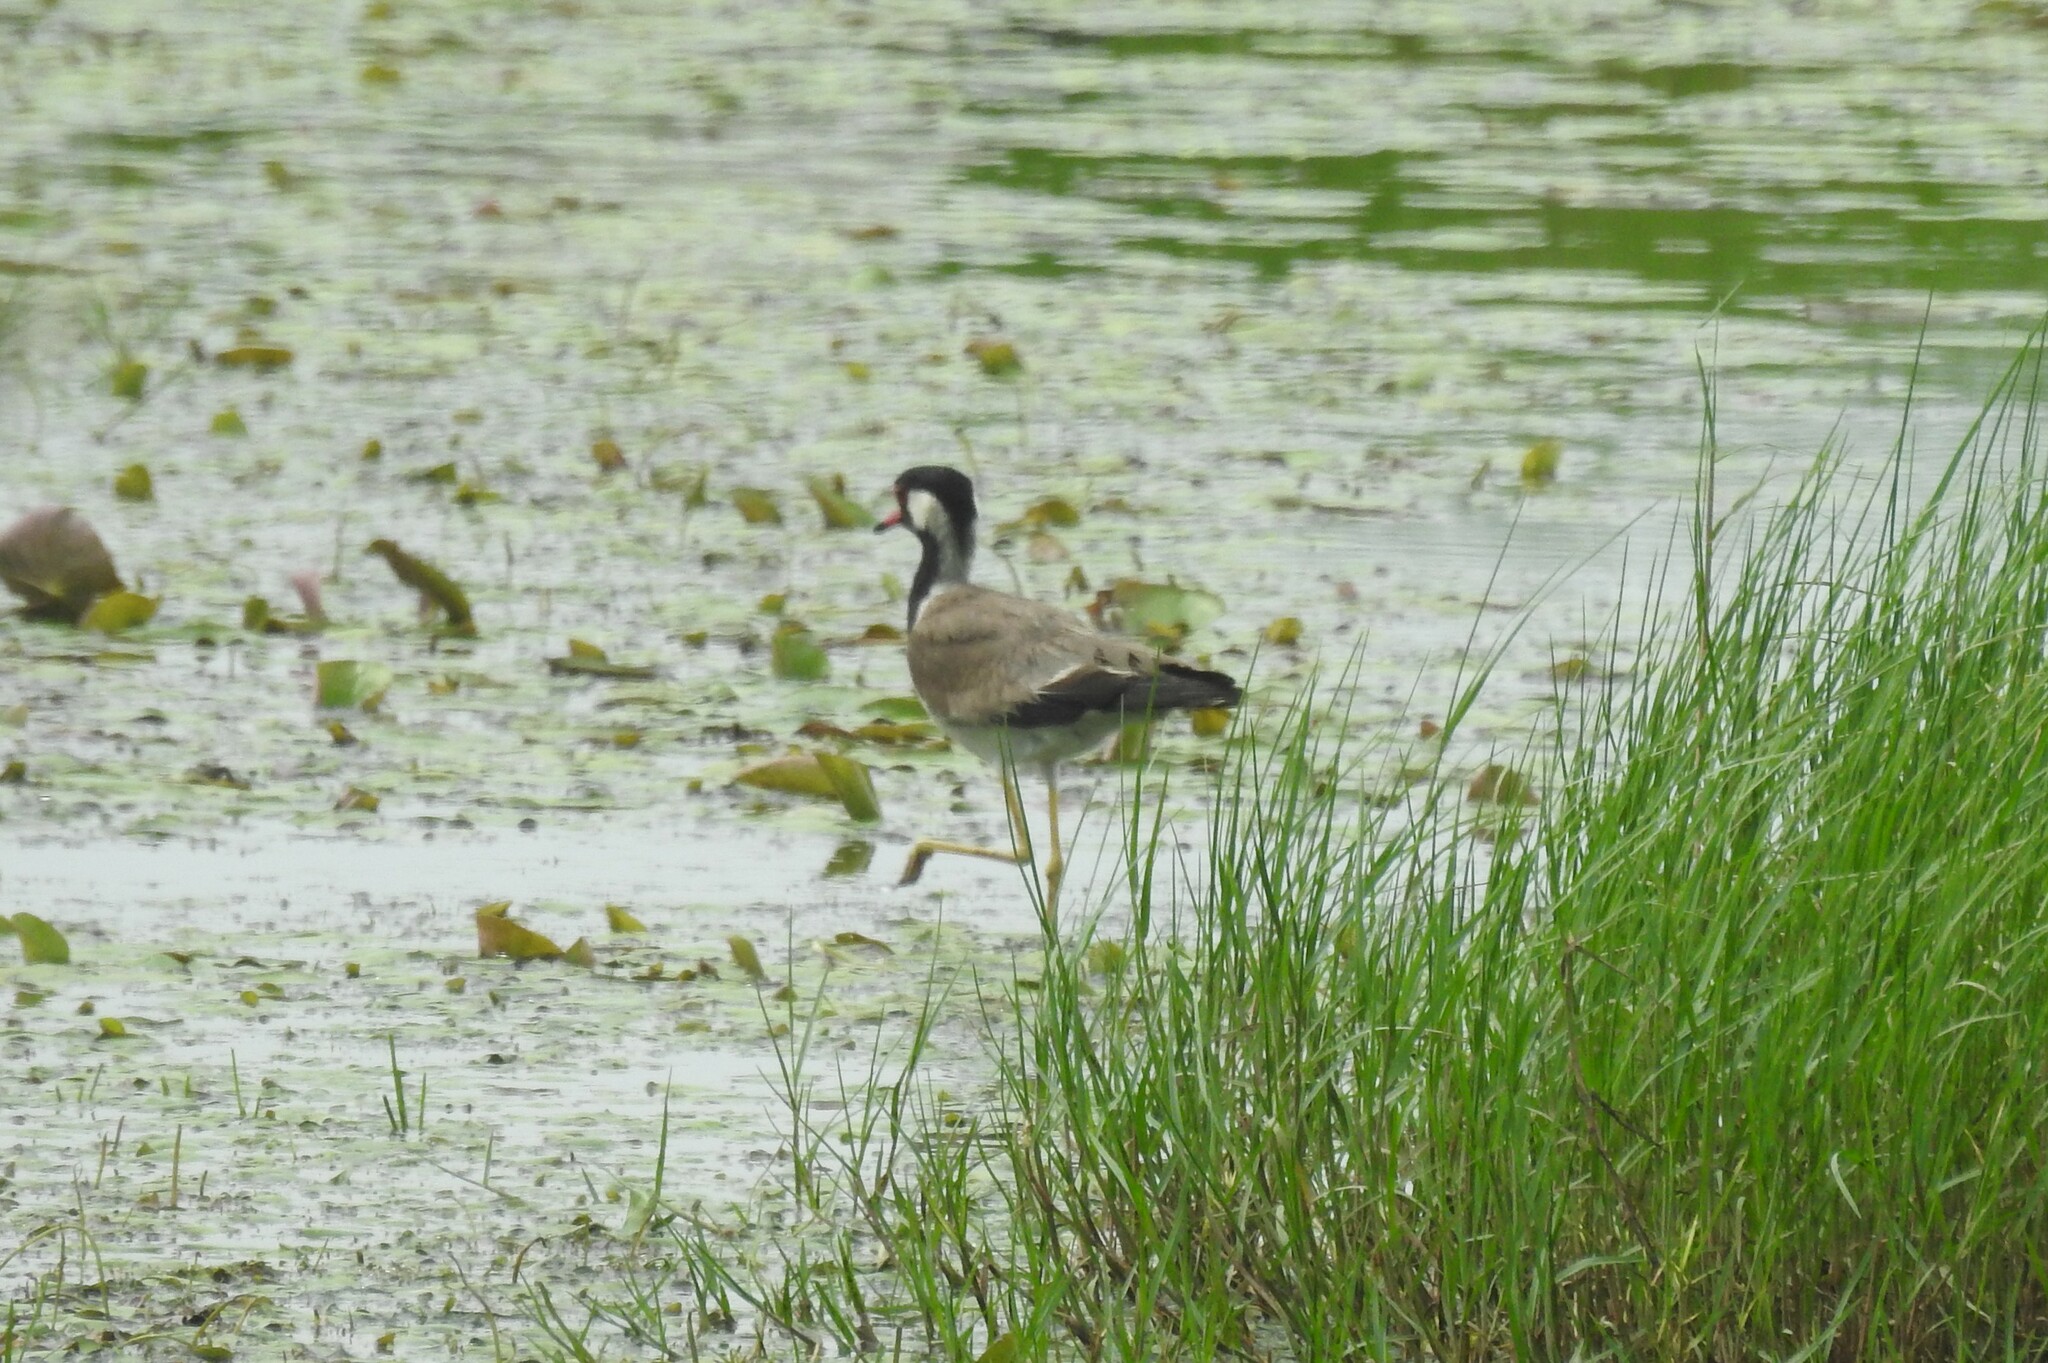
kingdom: Animalia
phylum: Chordata
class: Aves
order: Charadriiformes
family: Charadriidae
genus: Vanellus
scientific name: Vanellus indicus
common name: Red-wattled lapwing
